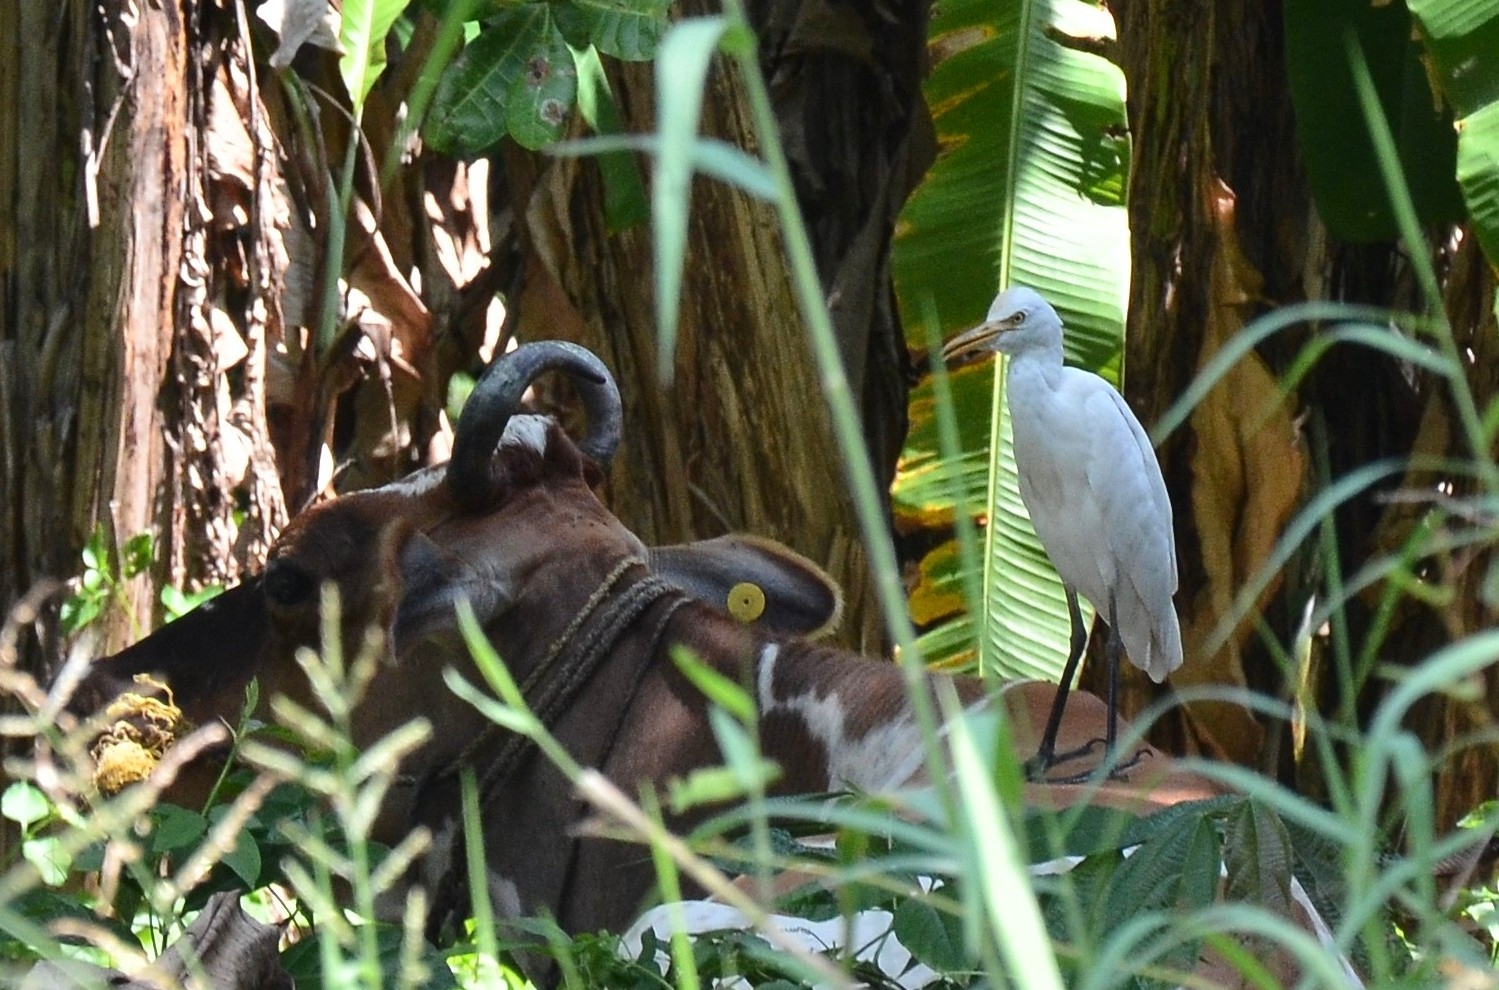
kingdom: Animalia
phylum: Chordata
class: Aves
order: Pelecaniformes
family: Ardeidae
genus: Bubulcus
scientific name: Bubulcus coromandus
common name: Eastern cattle egret
